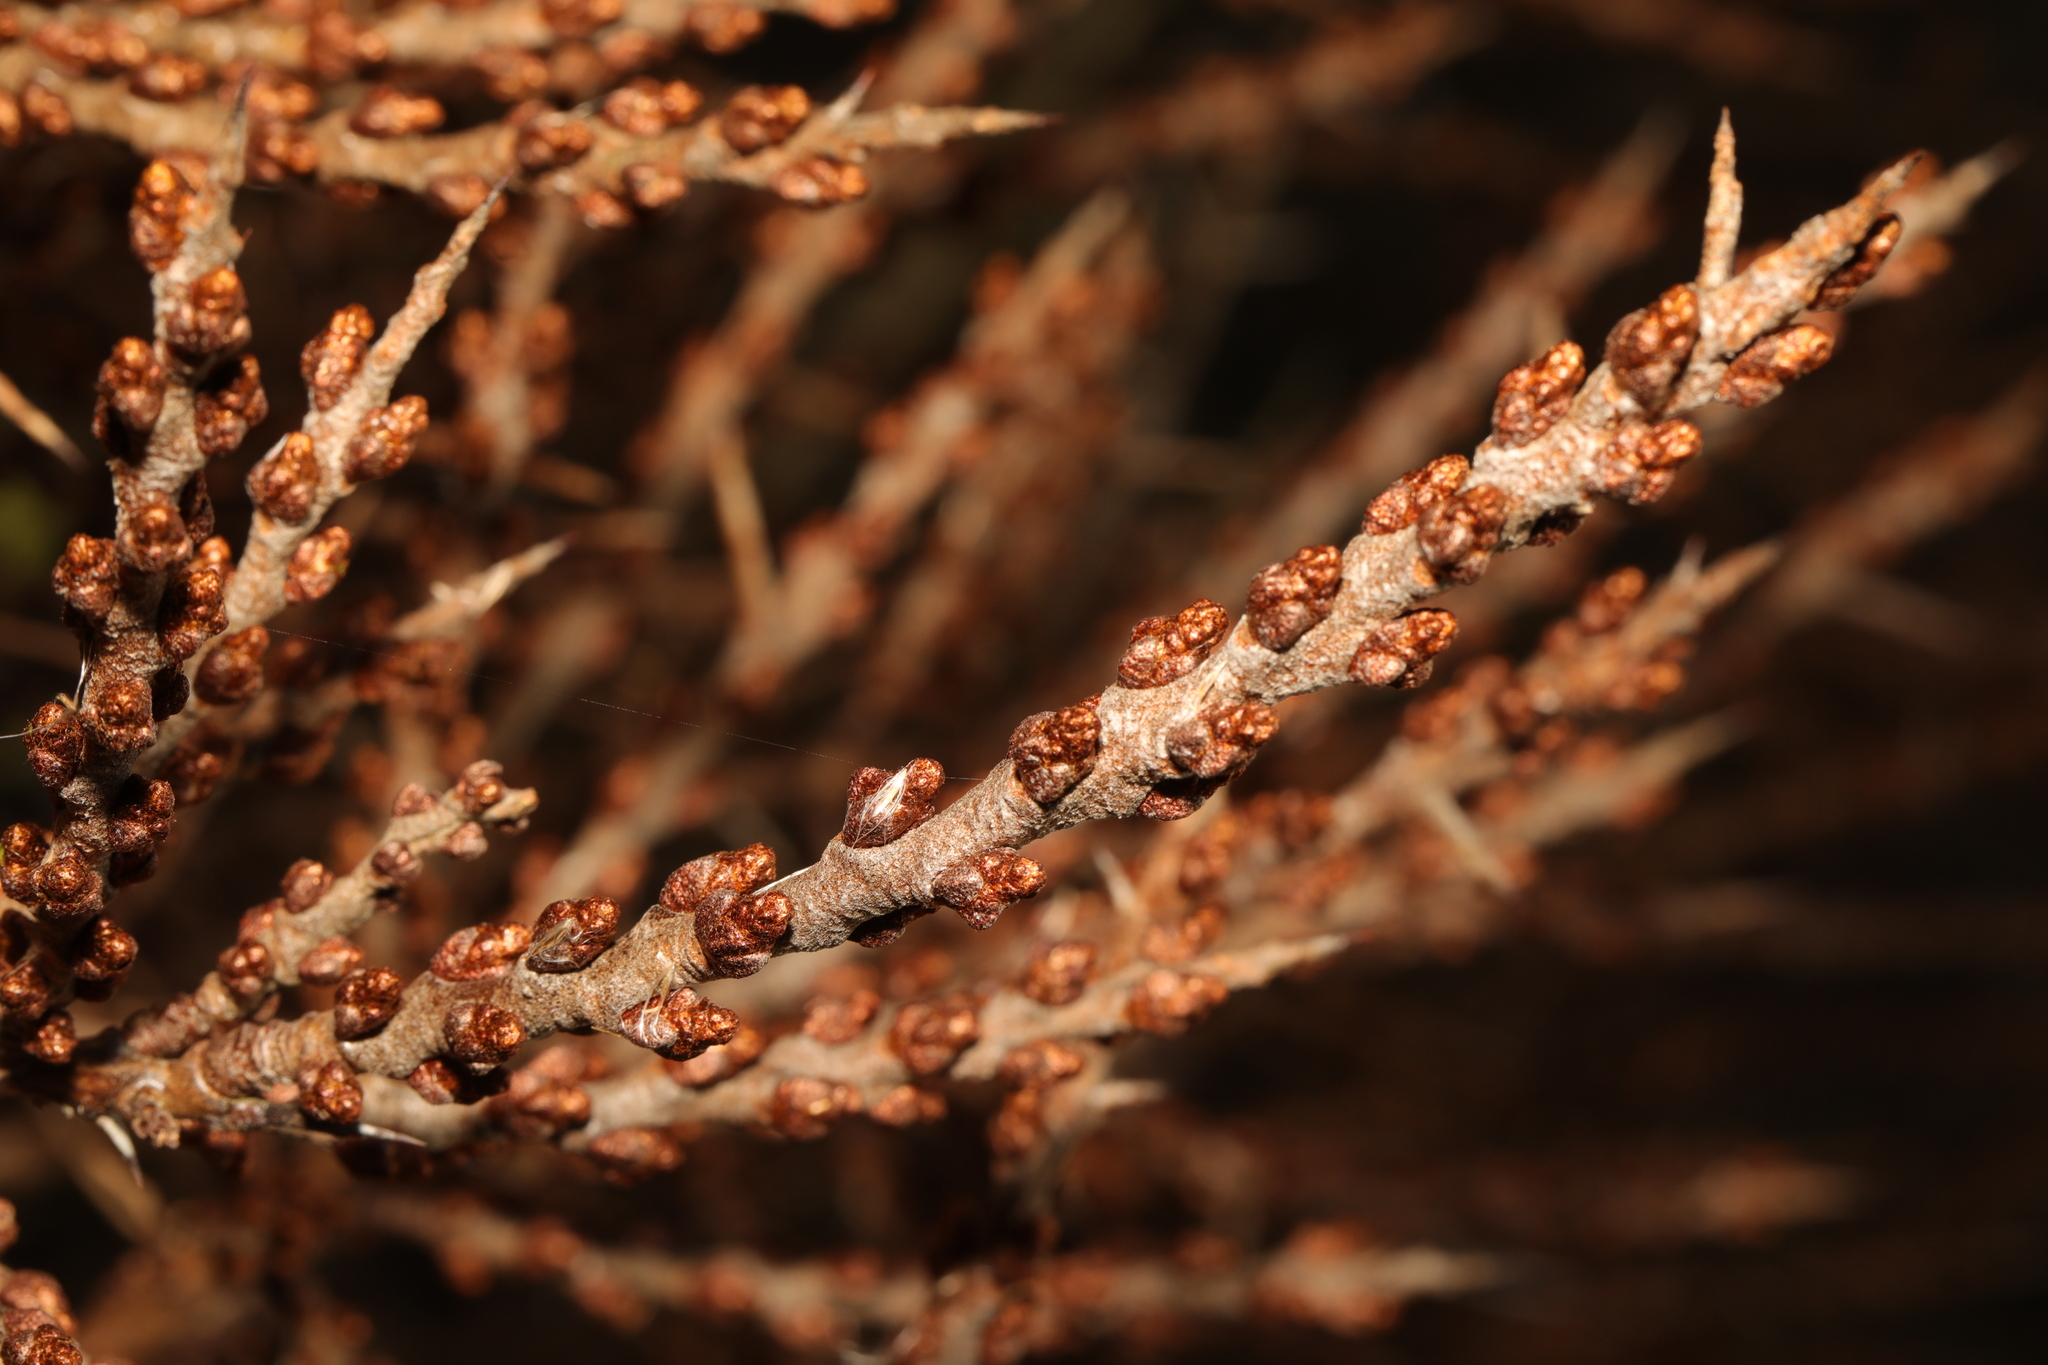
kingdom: Plantae
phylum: Tracheophyta
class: Magnoliopsida
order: Rosales
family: Elaeagnaceae
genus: Hippophae
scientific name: Hippophae rhamnoides
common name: Sea-buckthorn
